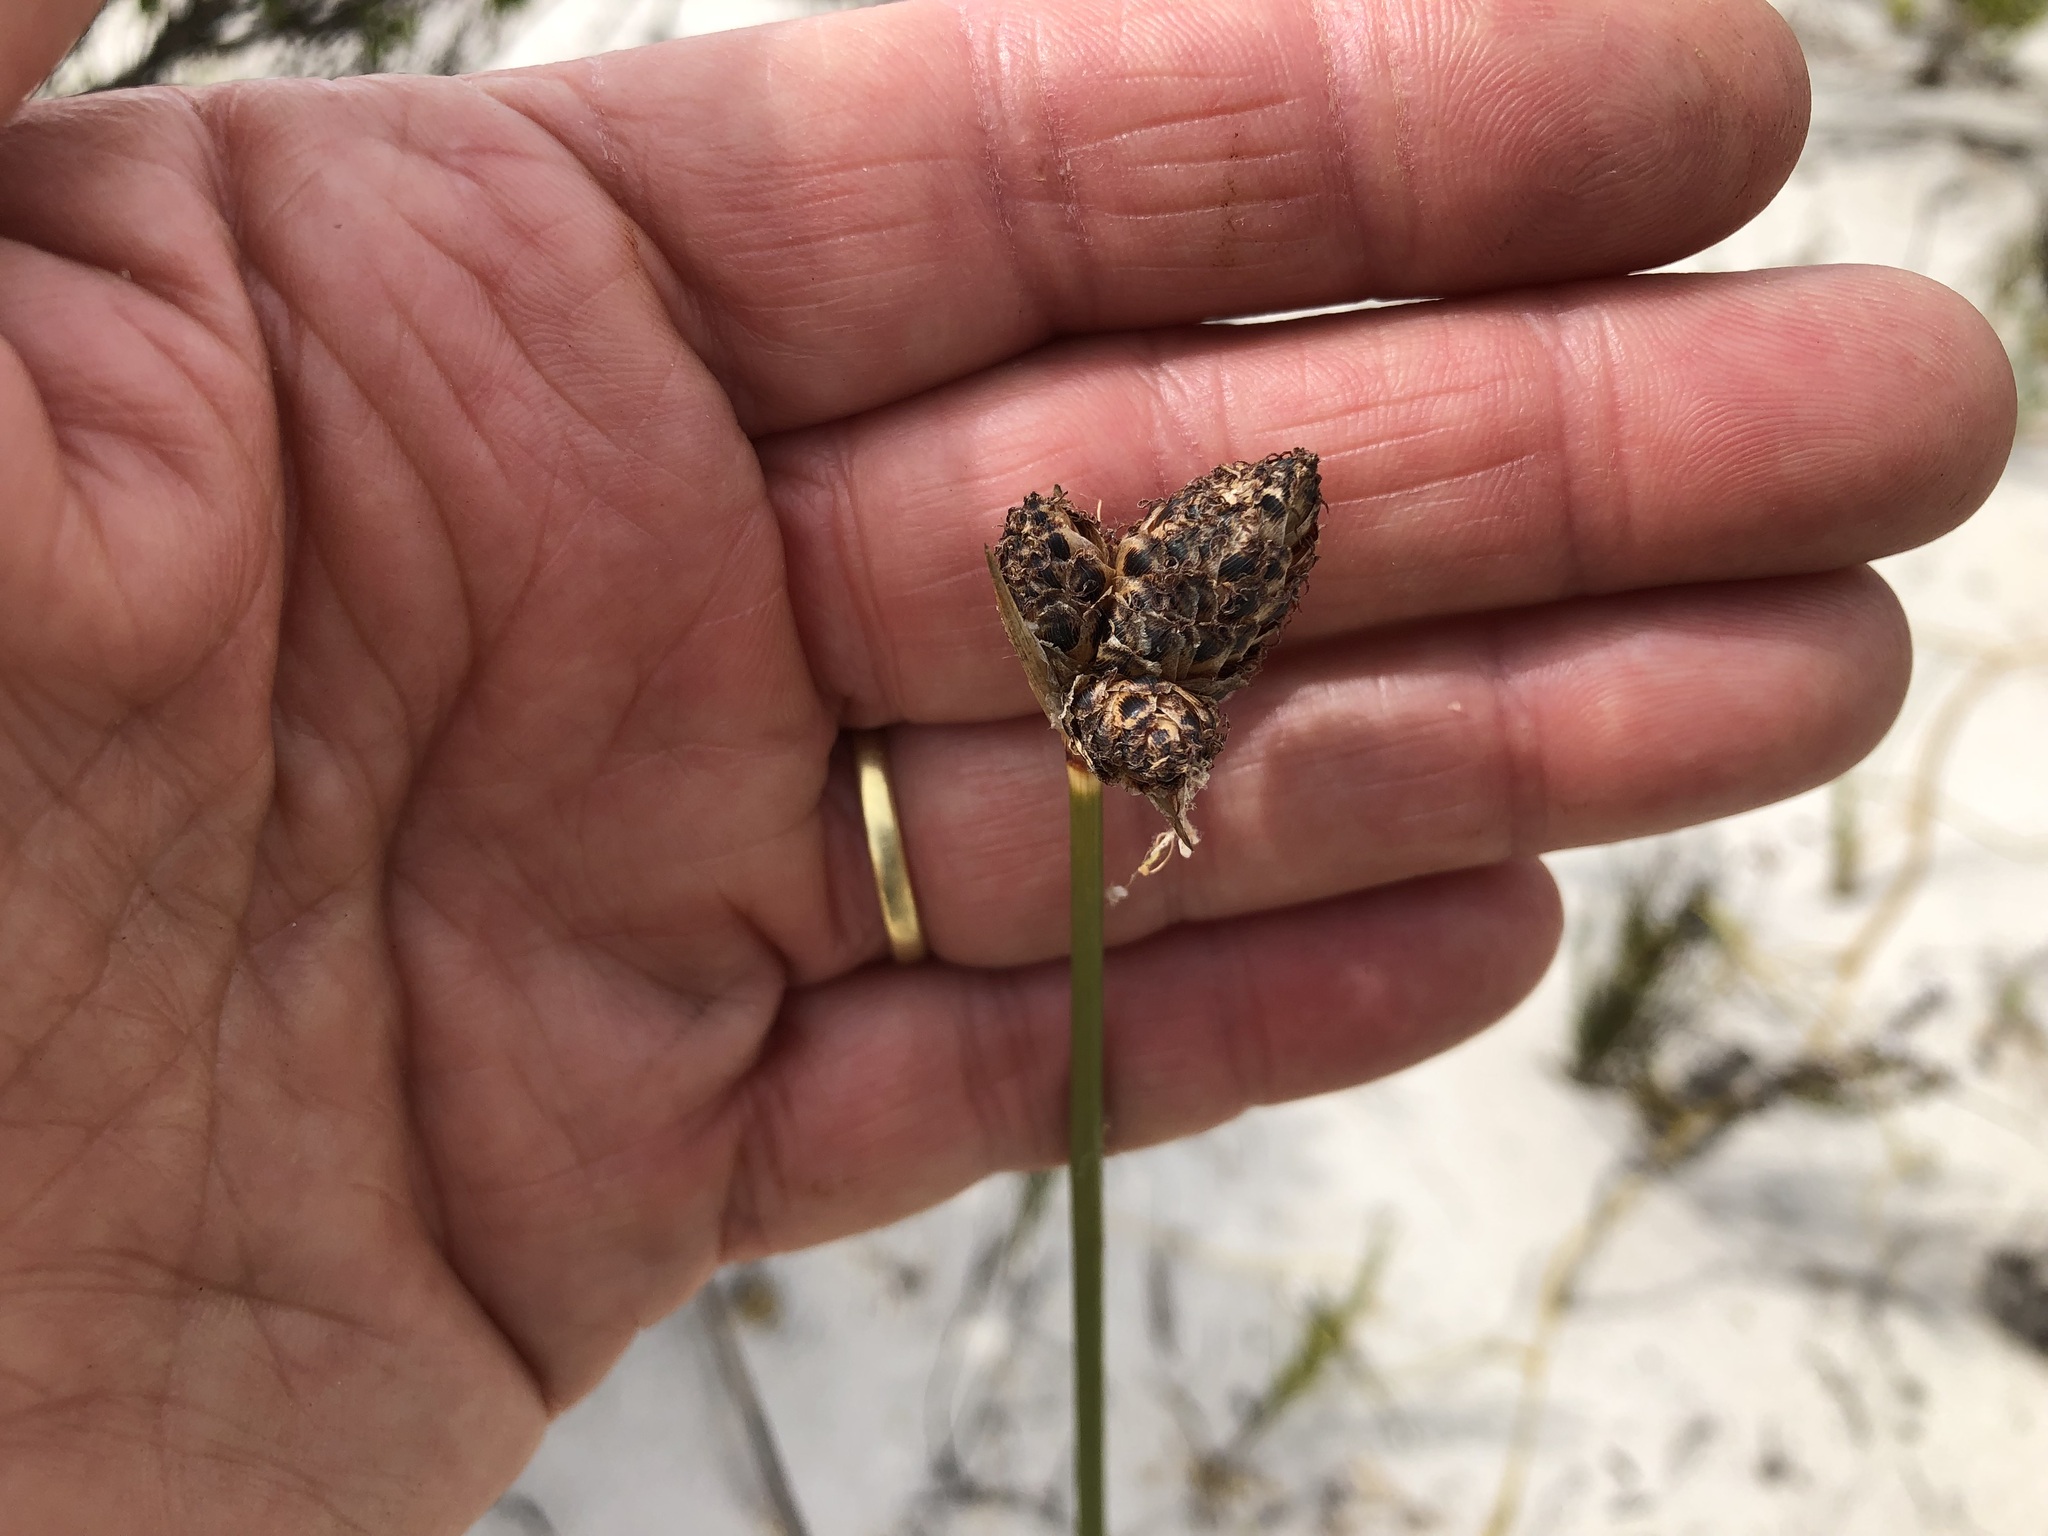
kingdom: Plantae
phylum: Tracheophyta
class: Liliopsida
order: Poales
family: Cyperaceae
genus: Hellmuthia
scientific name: Hellmuthia membranacea
